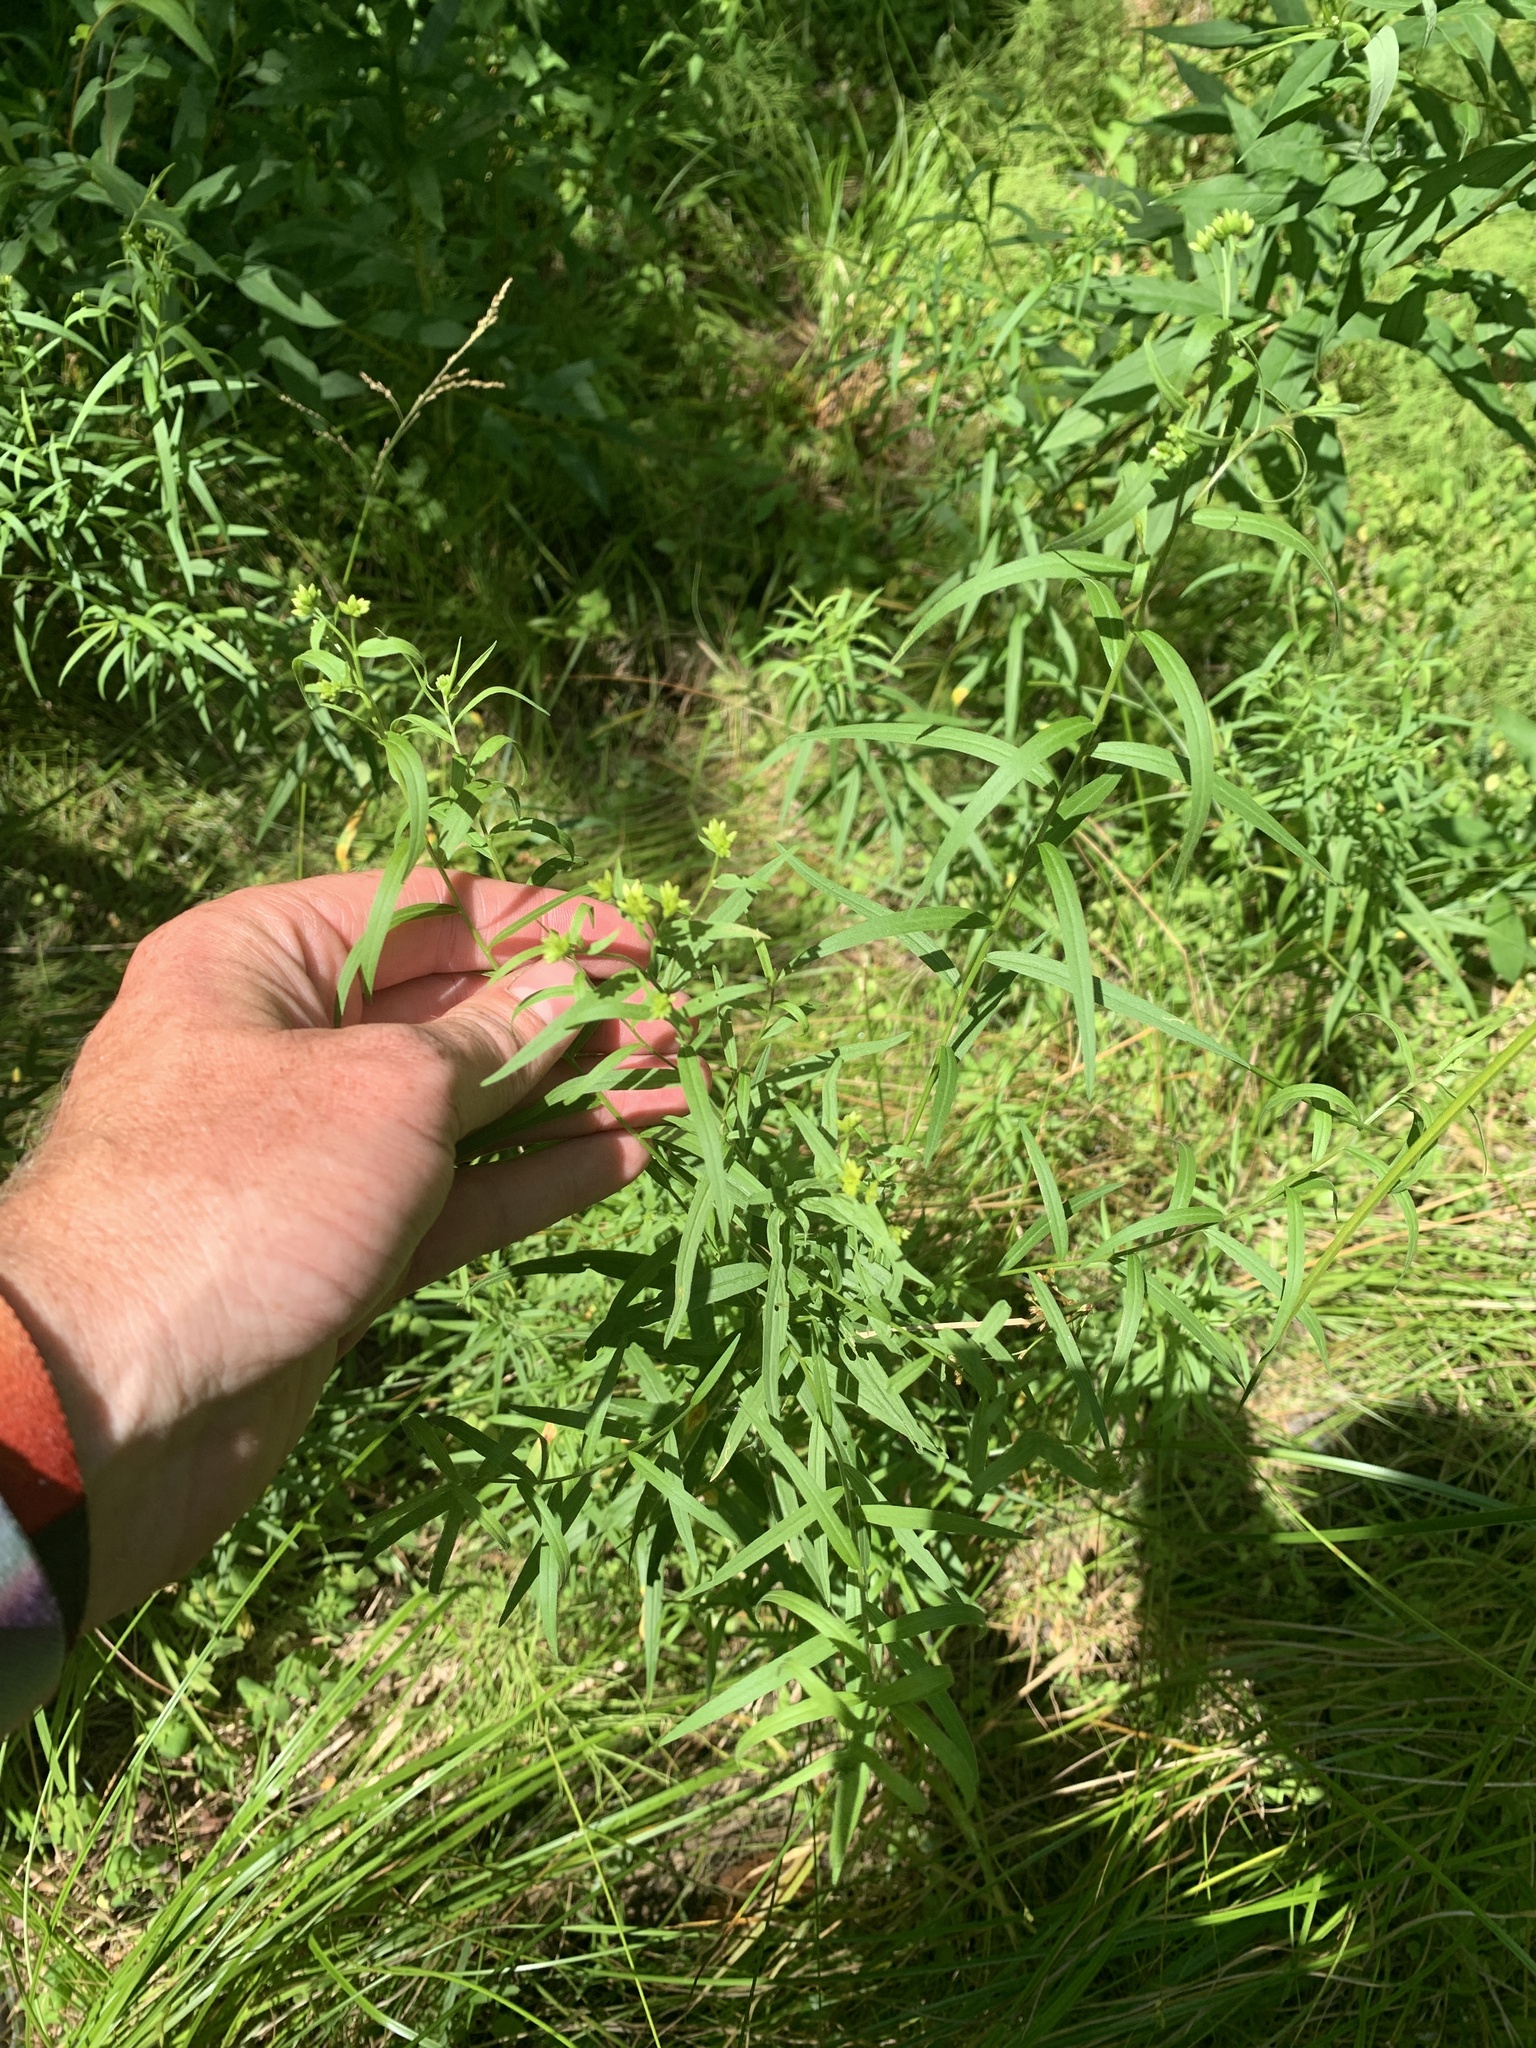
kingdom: Plantae
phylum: Tracheophyta
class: Magnoliopsida
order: Asterales
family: Asteraceae
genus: Euthamia
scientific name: Euthamia graminifolia
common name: Common goldentop
